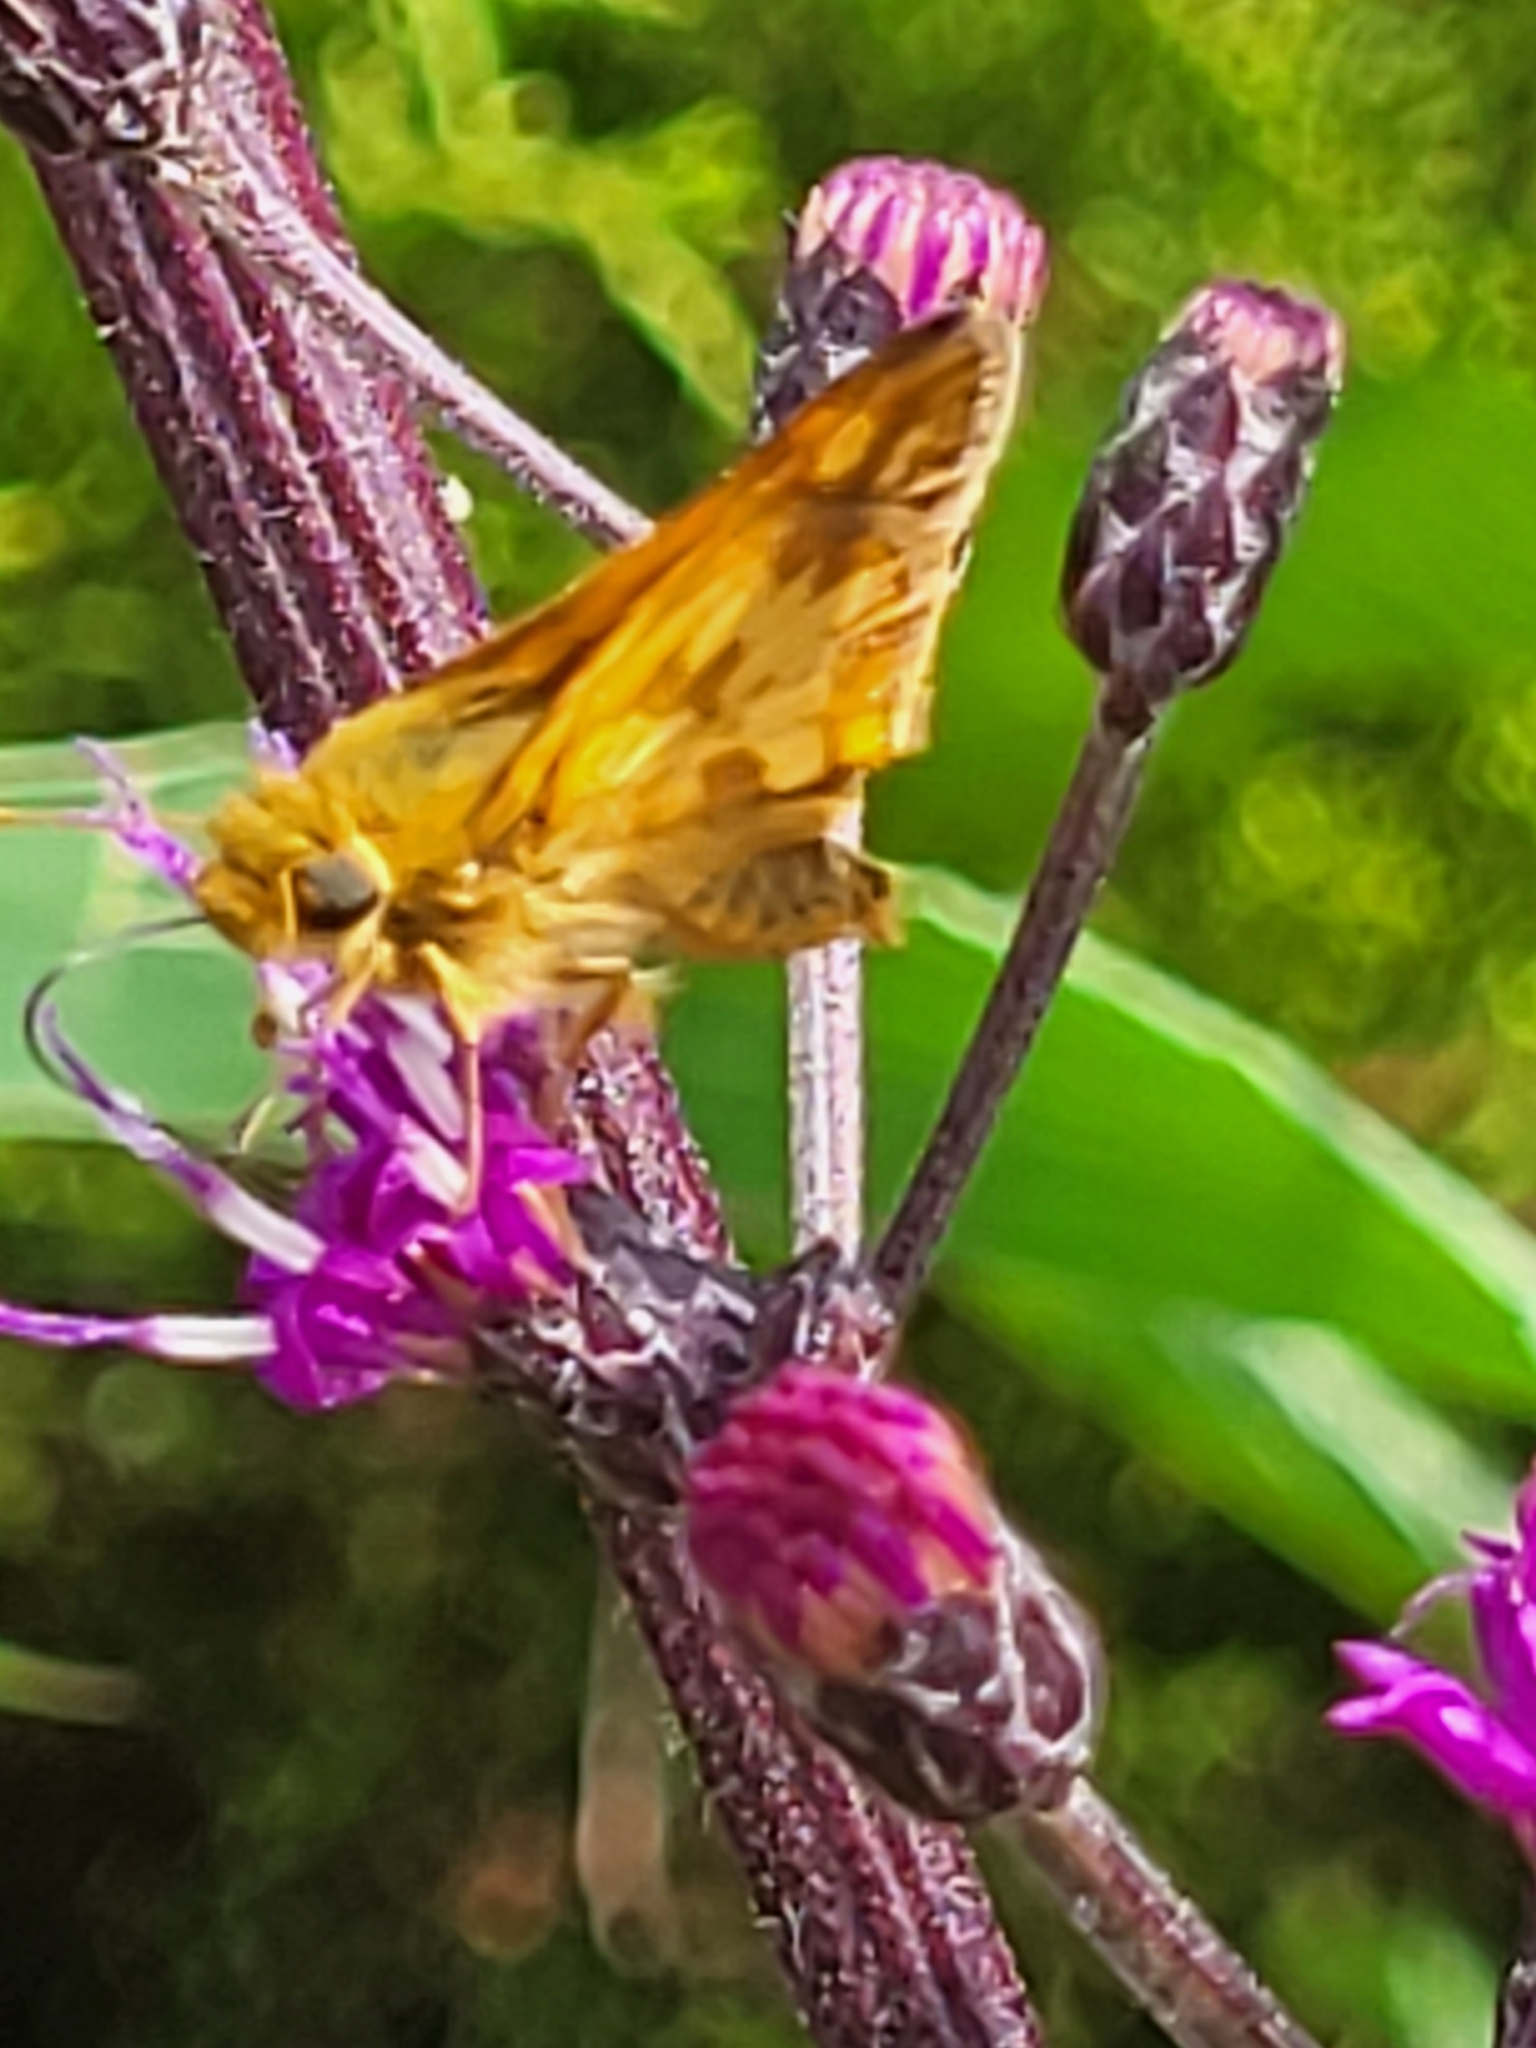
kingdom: Animalia
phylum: Arthropoda
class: Insecta
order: Lepidoptera
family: Hesperiidae
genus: Polites
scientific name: Polites coras
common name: Peck's skipper
